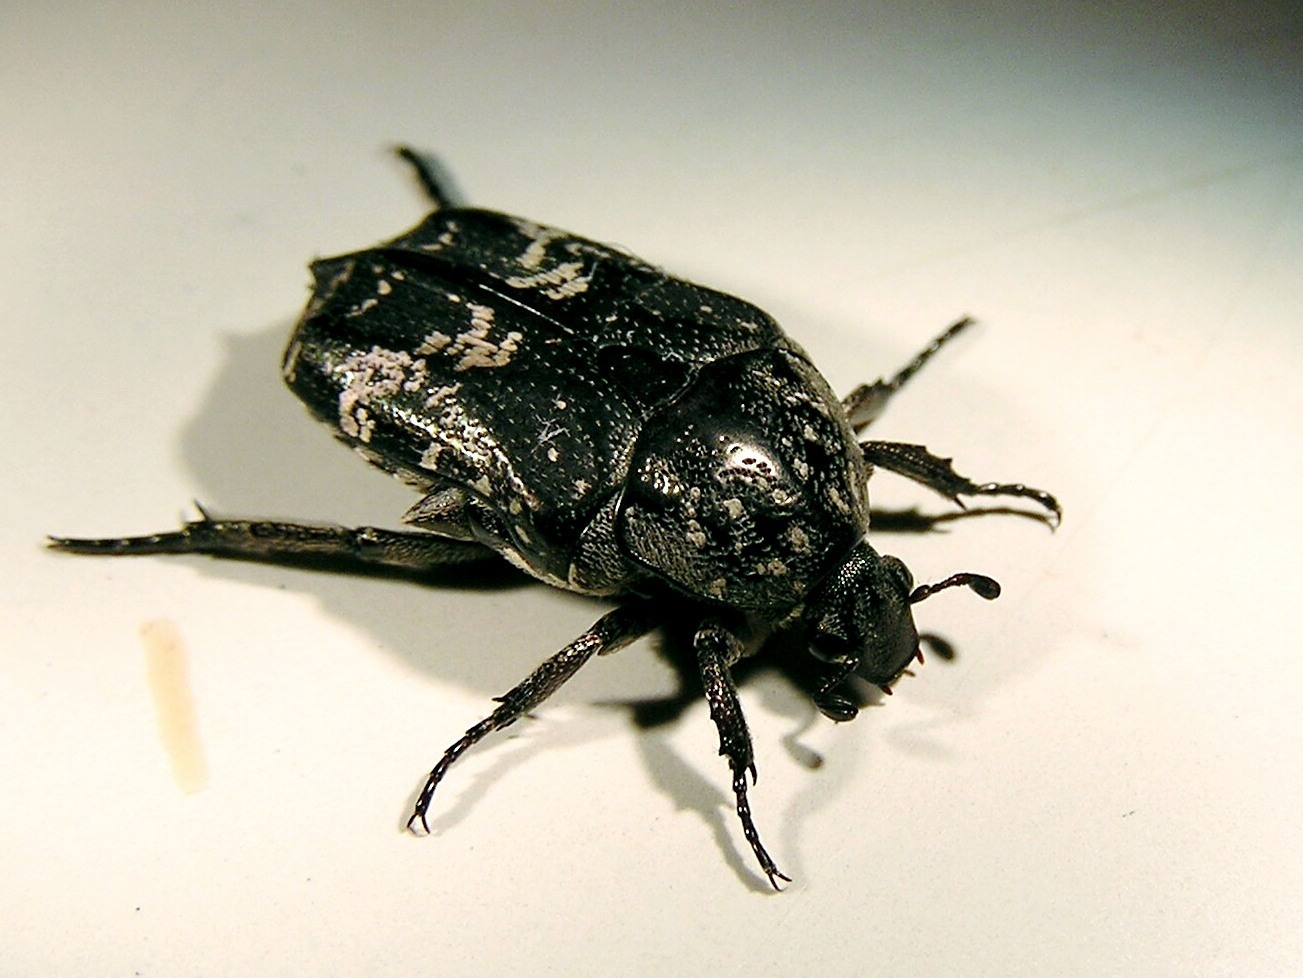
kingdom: Animalia
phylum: Arthropoda
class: Insecta
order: Coleoptera
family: Scarabaeidae
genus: Protaetia
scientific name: Protaetia acuminata
